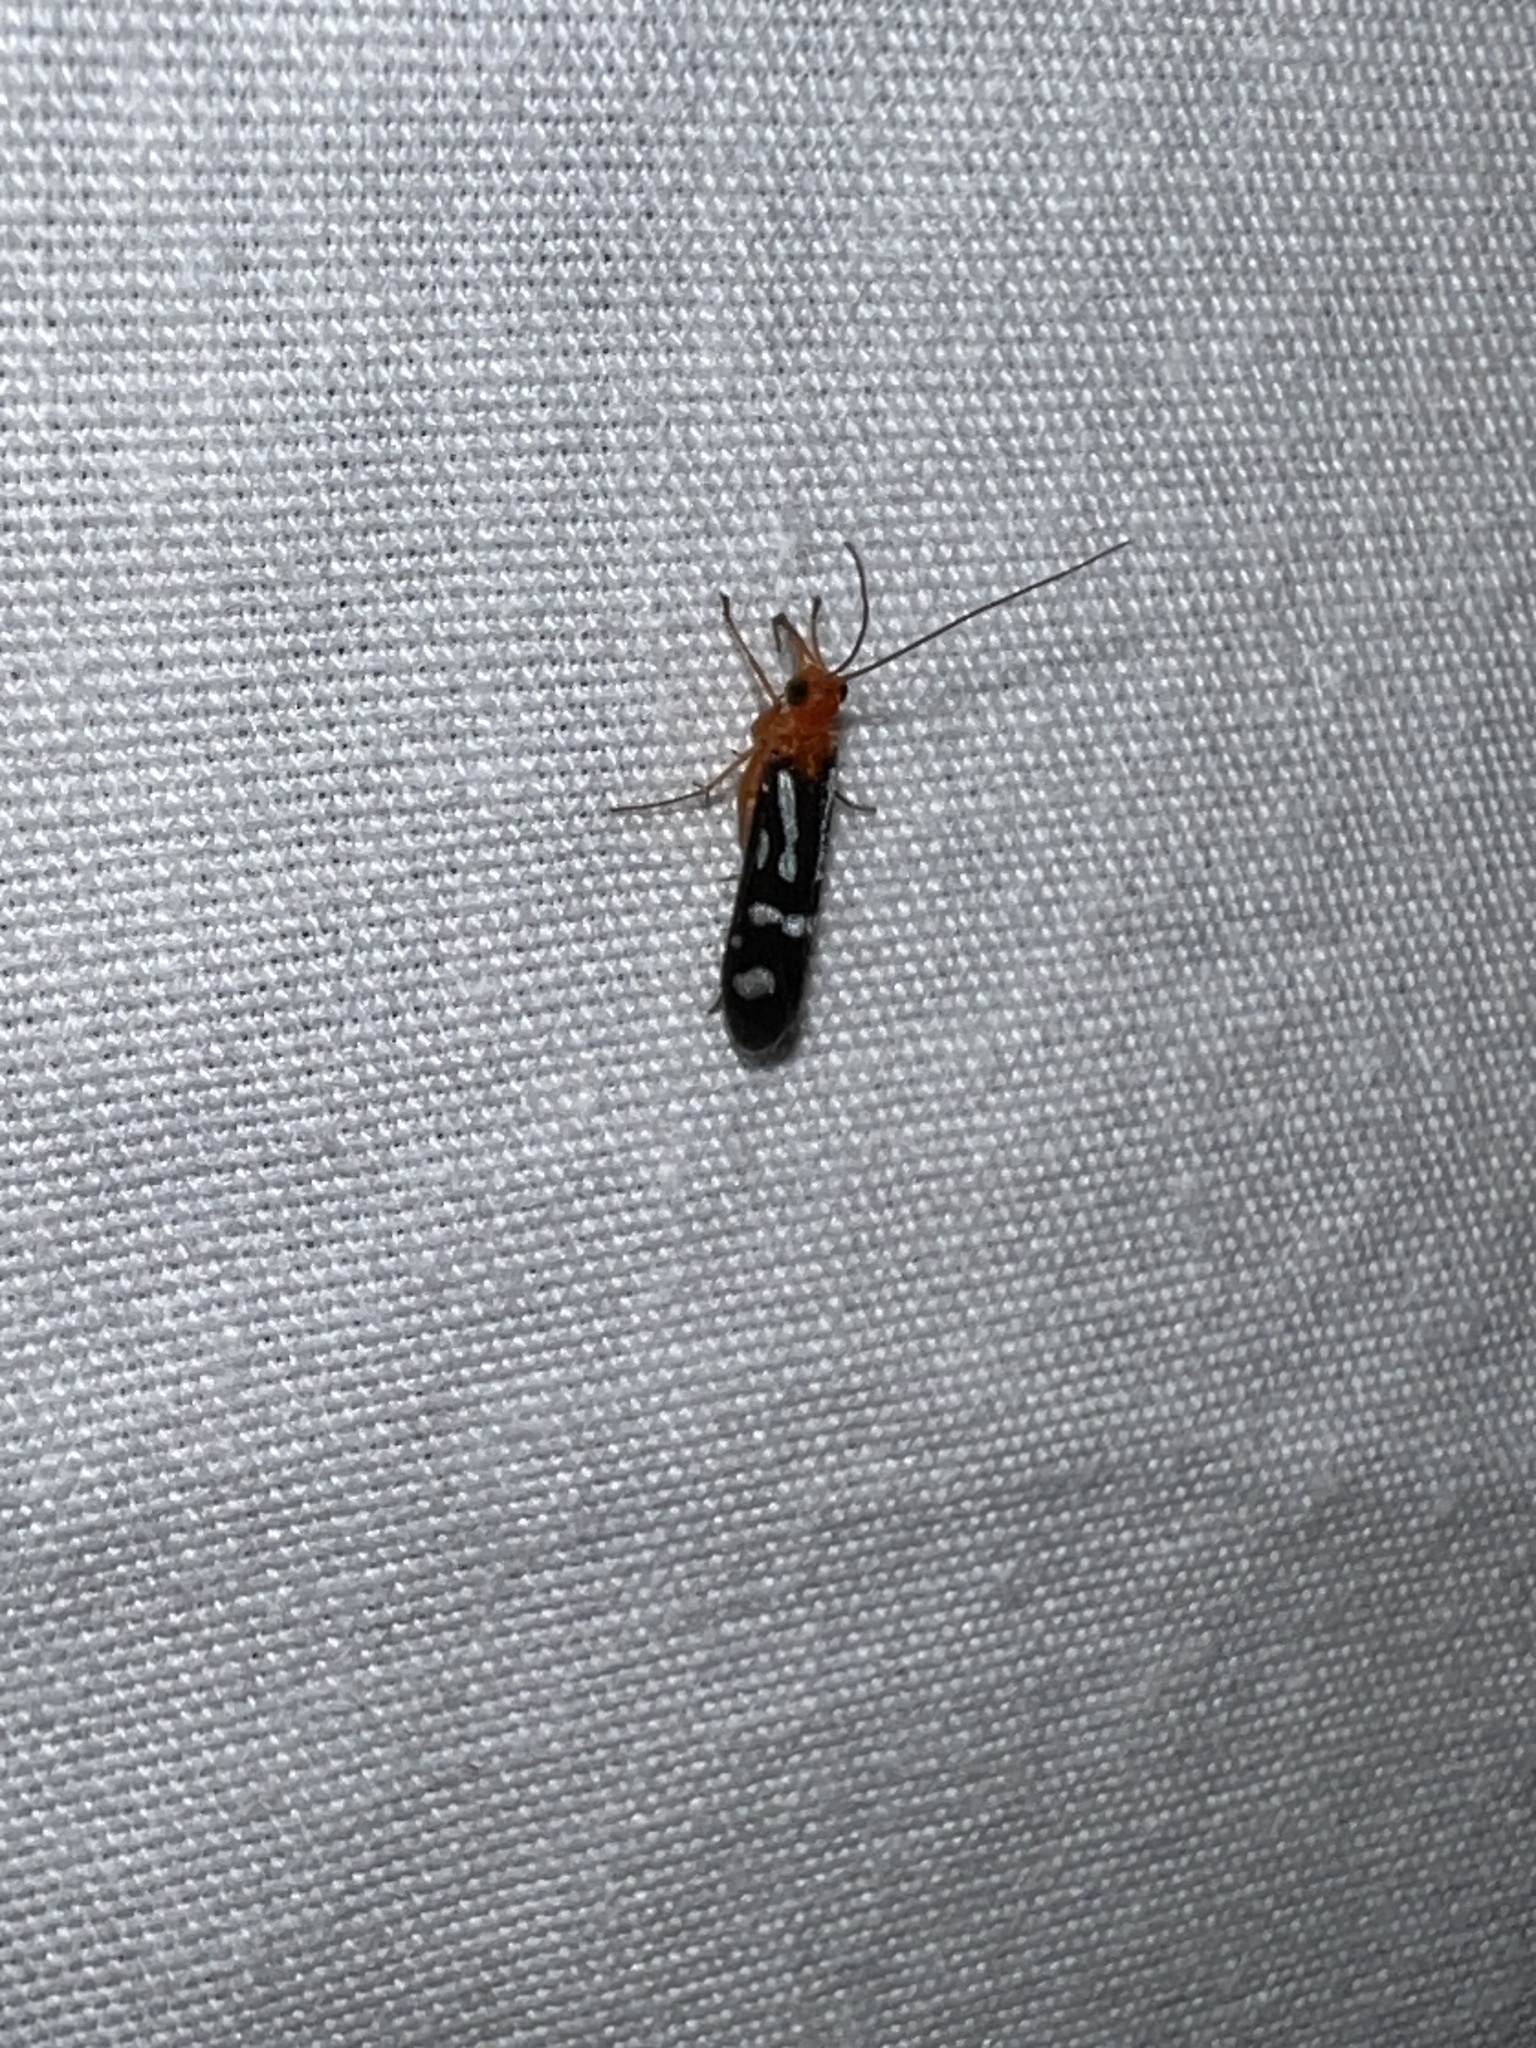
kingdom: Animalia
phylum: Arthropoda
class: Insecta
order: Trichoptera
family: Philopotamidae
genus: Chimarra
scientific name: Chimarra albomaculata
